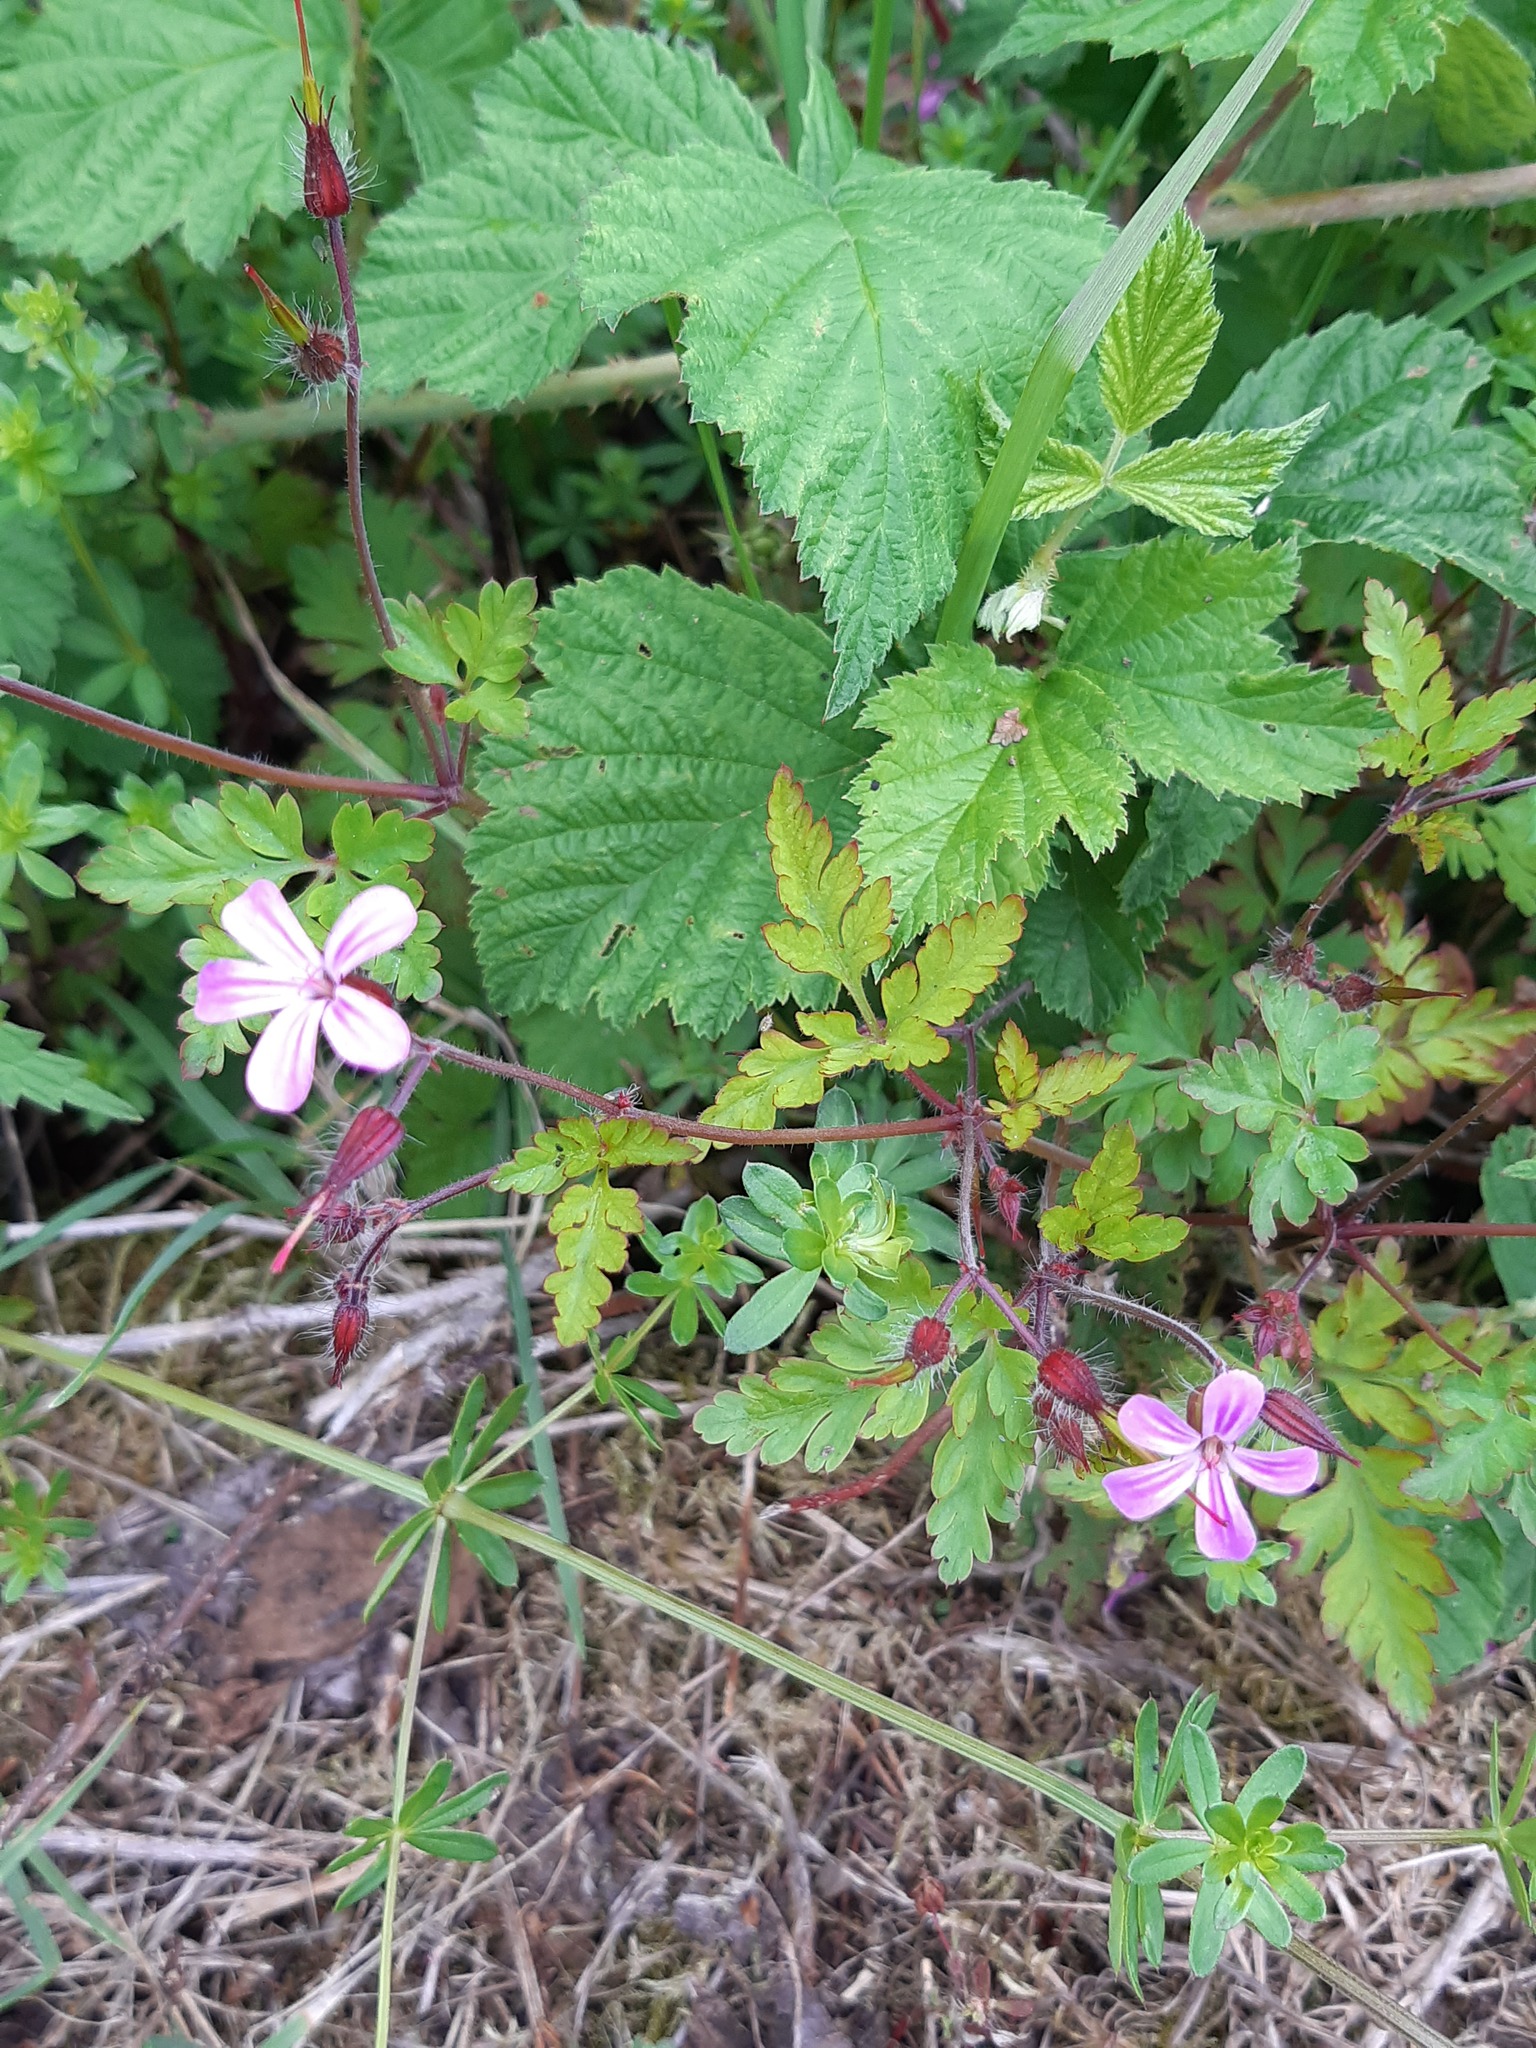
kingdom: Plantae
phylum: Tracheophyta
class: Magnoliopsida
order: Geraniales
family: Geraniaceae
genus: Geranium
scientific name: Geranium robertianum
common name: Herb-robert
